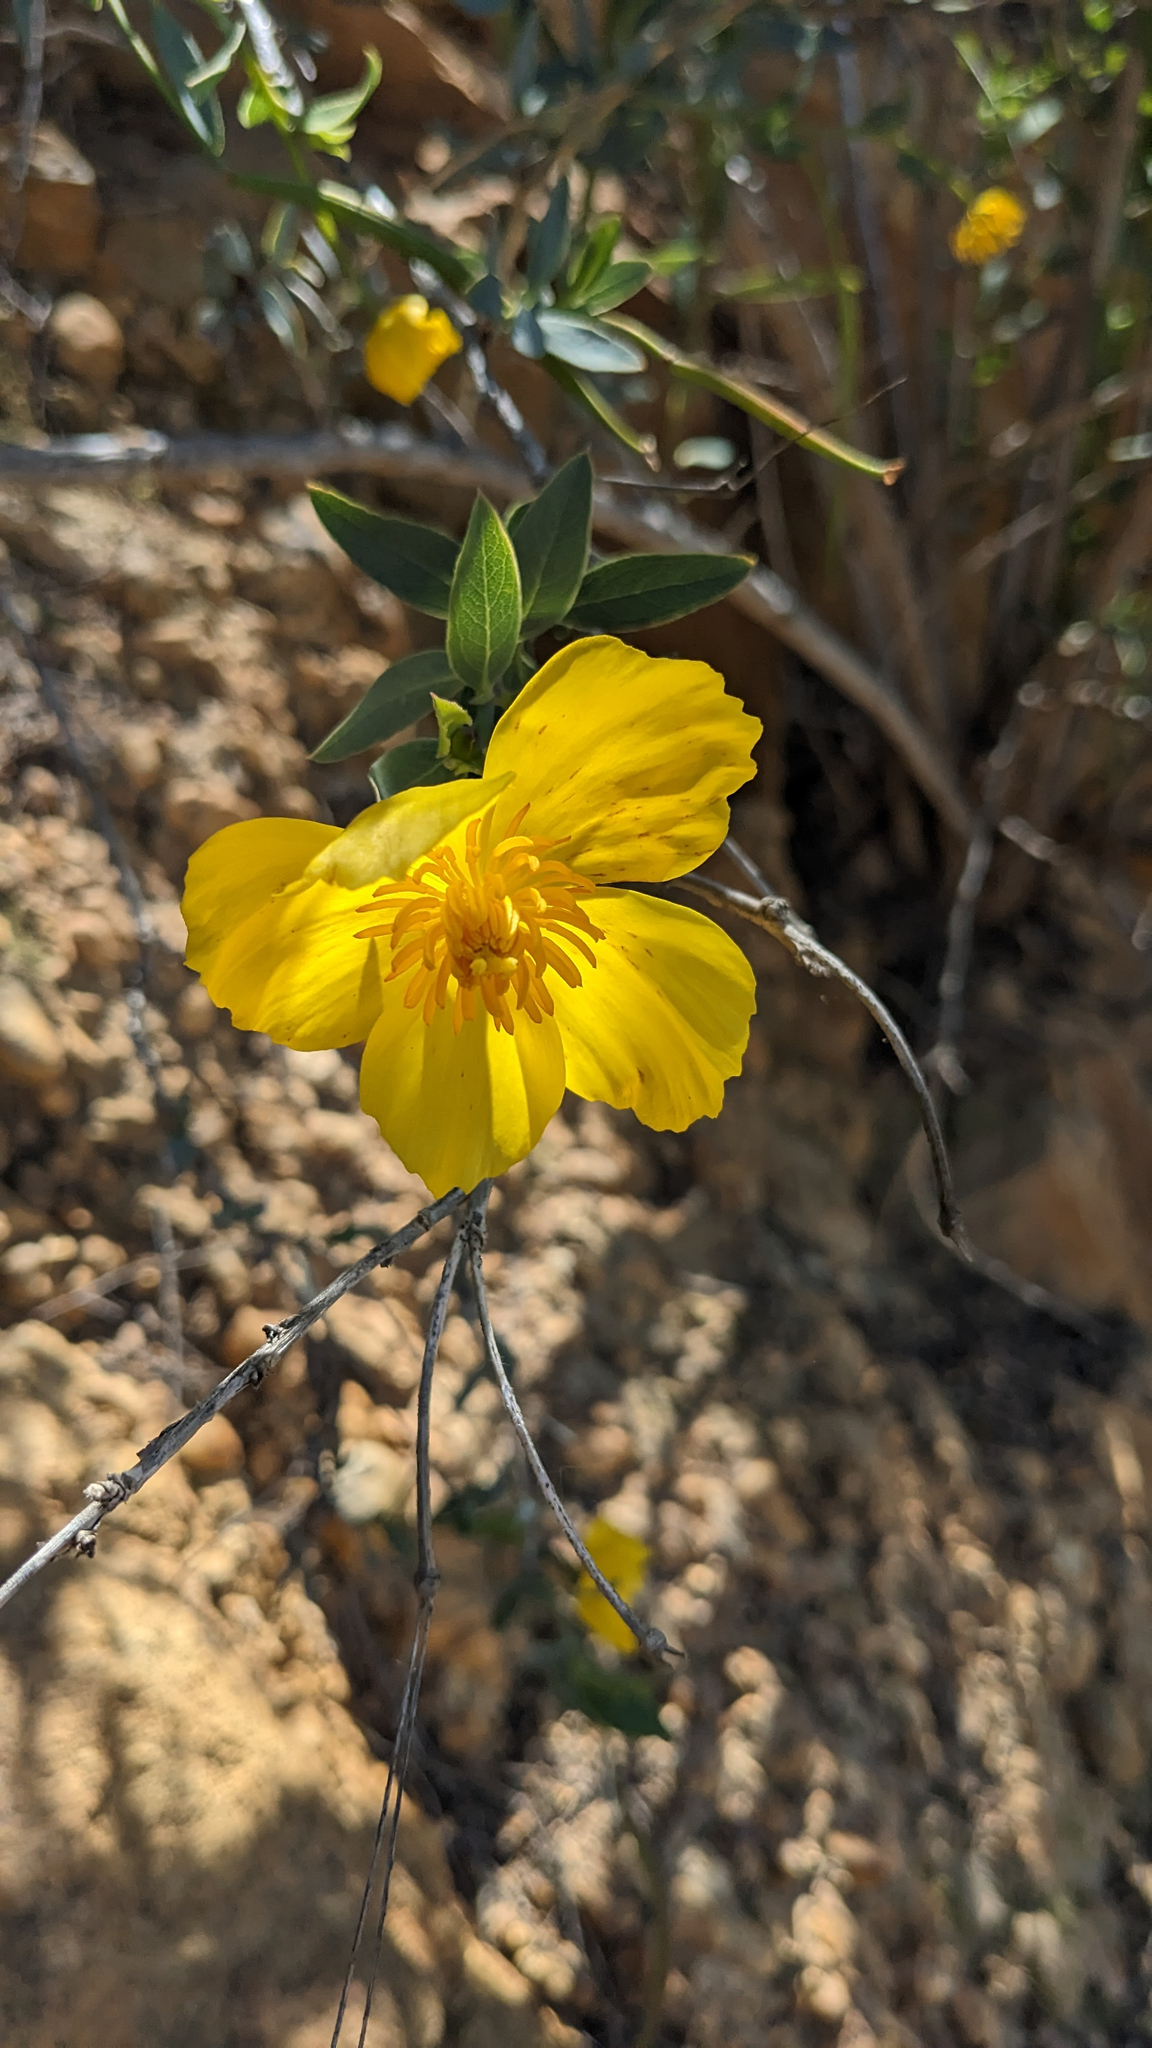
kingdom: Plantae
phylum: Tracheophyta
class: Magnoliopsida
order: Ranunculales
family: Papaveraceae
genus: Dendromecon
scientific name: Dendromecon rigida
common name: Tree poppy
